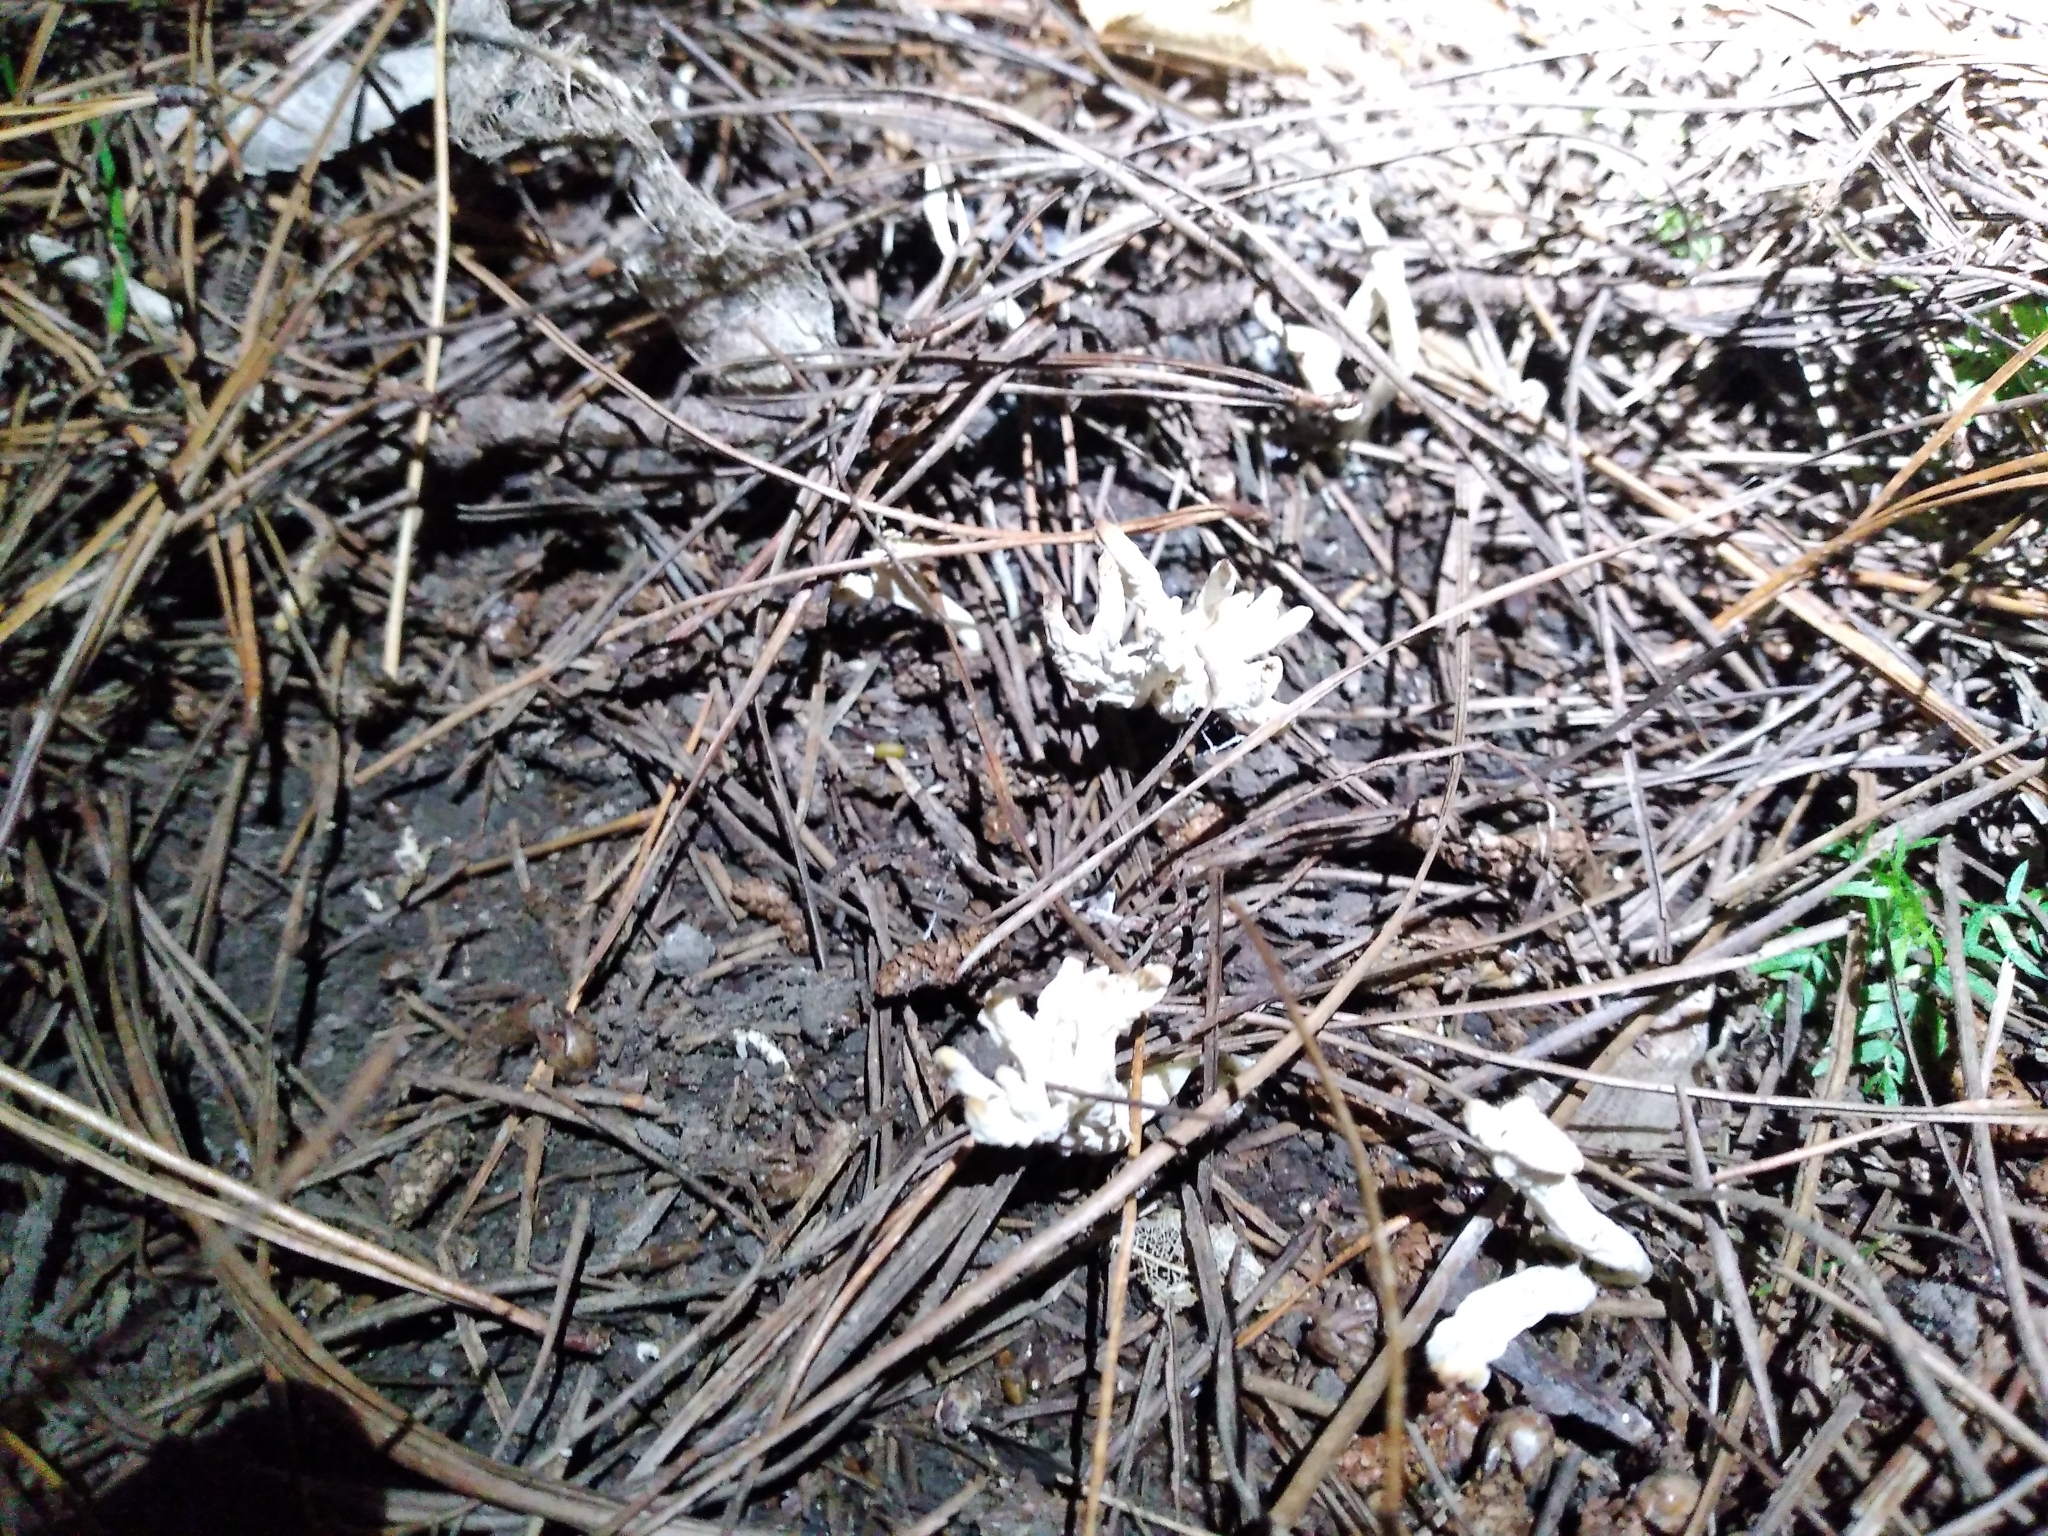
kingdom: Fungi
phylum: Basidiomycota
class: Agaricomycetes
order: Cantharellales
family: Hydnaceae
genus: Clavulina
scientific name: Clavulina rugosa
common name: Wrinkled club
